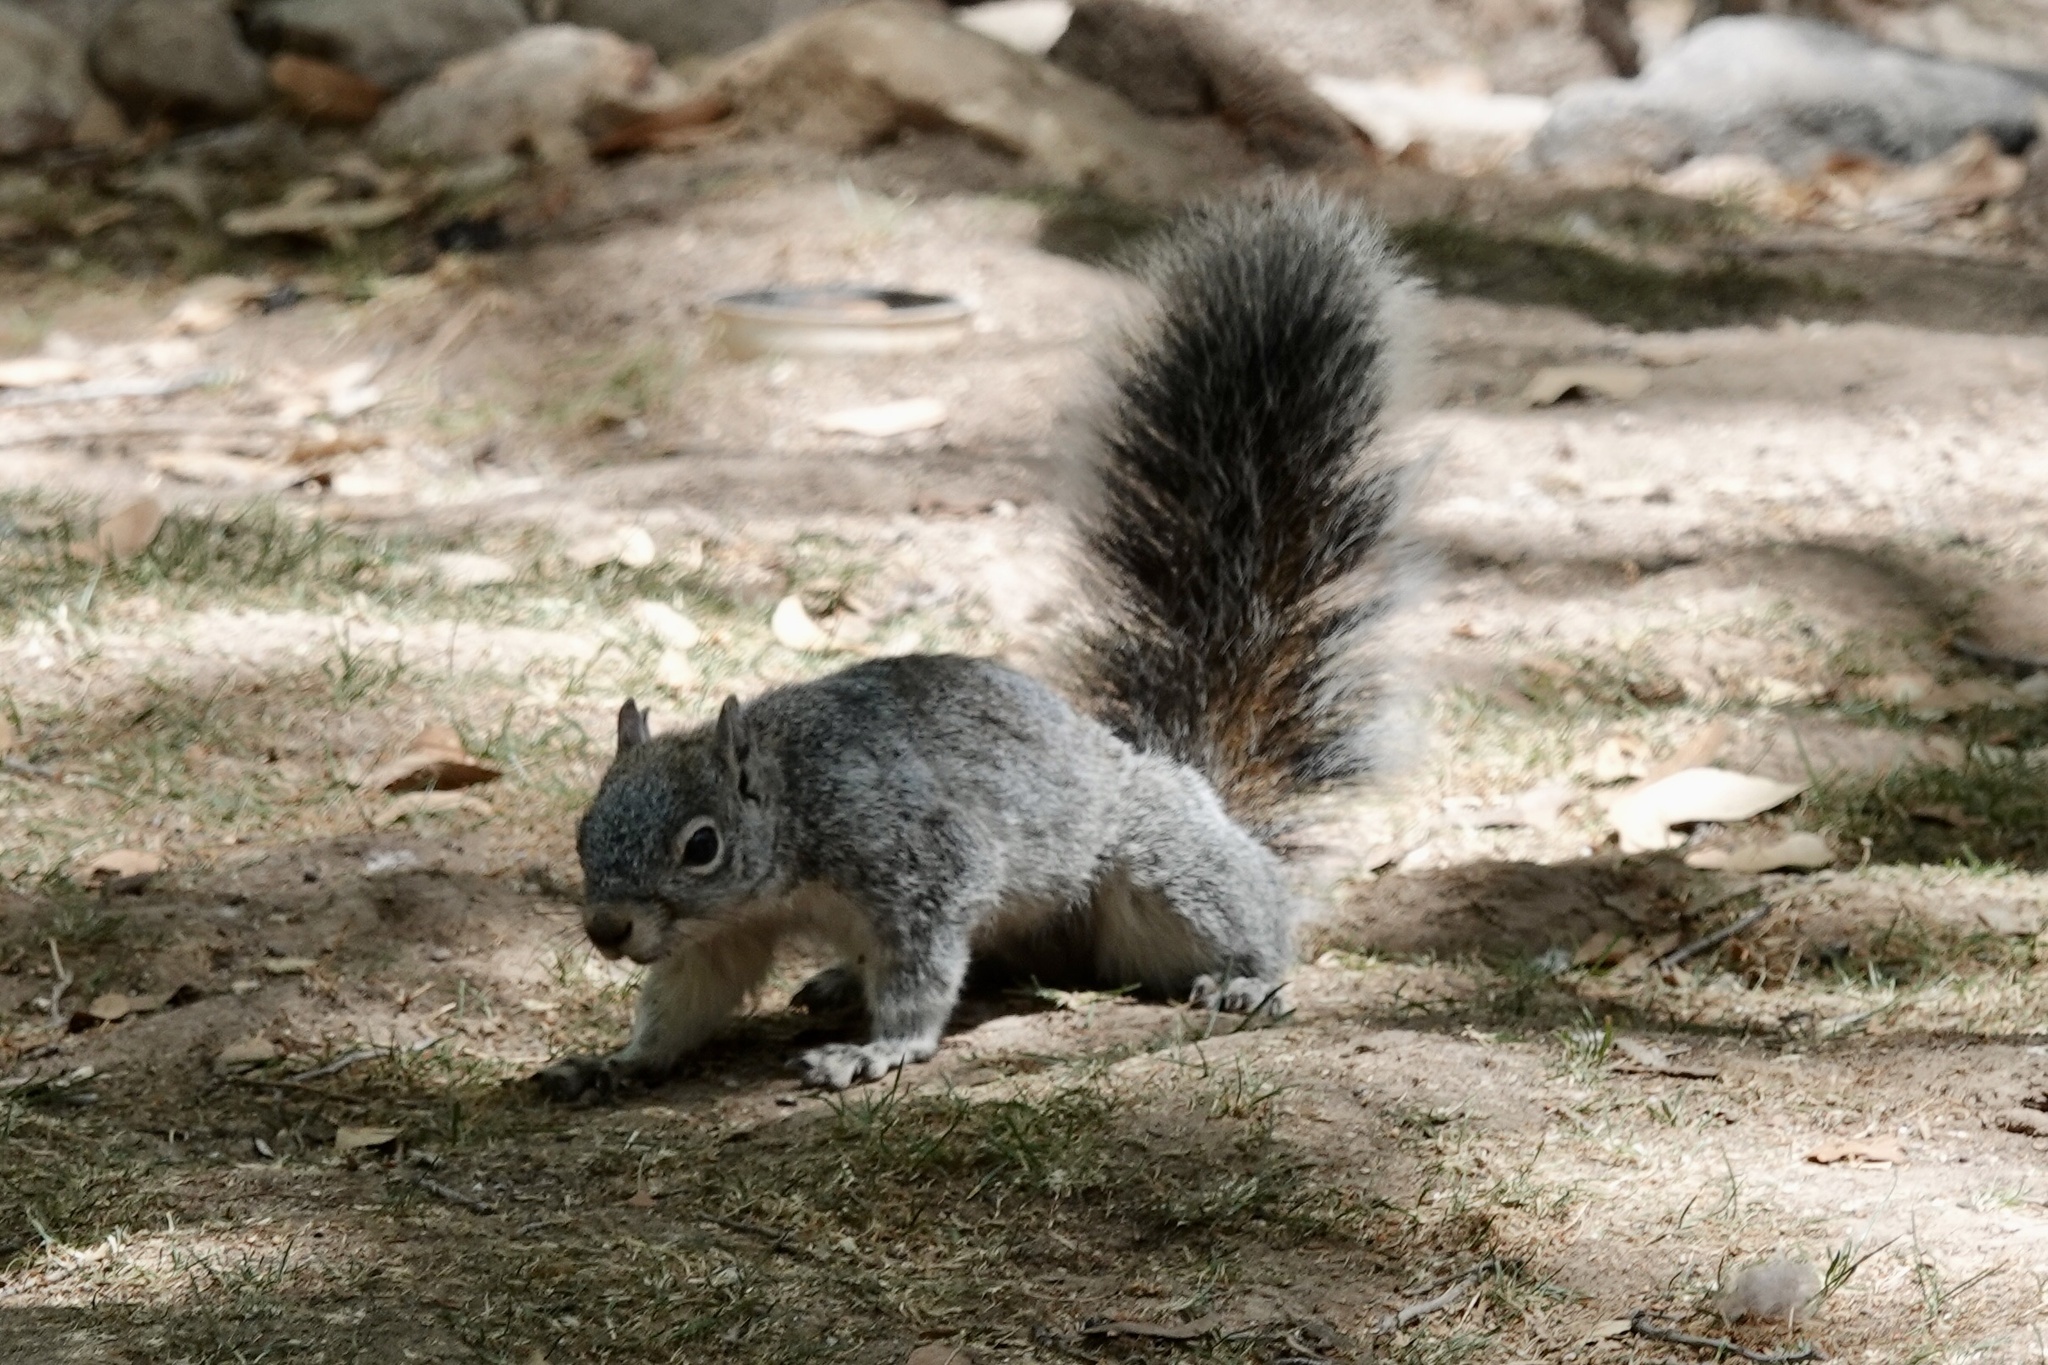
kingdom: Animalia
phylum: Chordata
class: Mammalia
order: Rodentia
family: Sciuridae
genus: Sciurus
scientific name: Sciurus arizonensis
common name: Arizona gray squirrel
